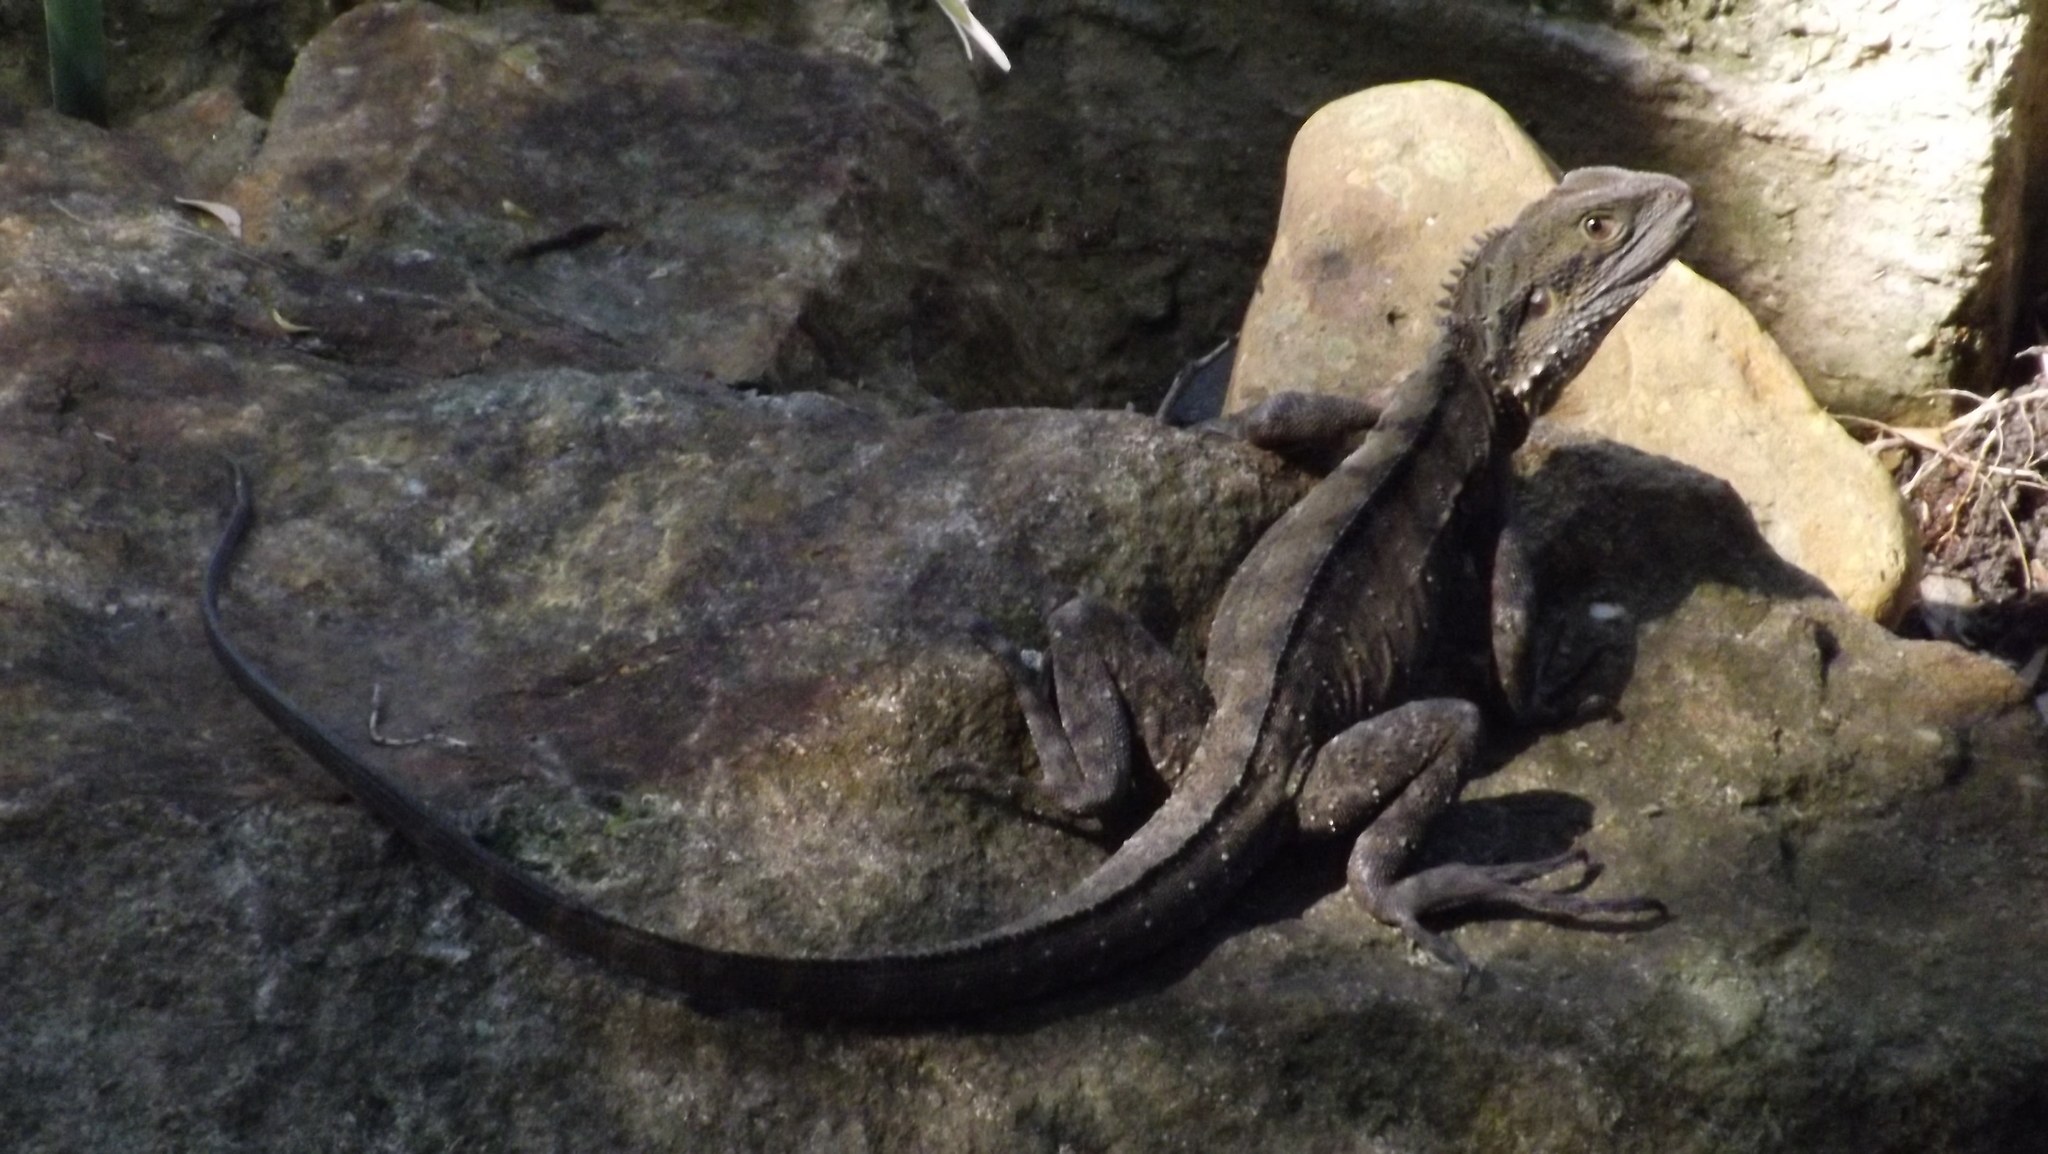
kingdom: Animalia
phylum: Chordata
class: Squamata
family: Agamidae
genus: Intellagama
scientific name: Intellagama lesueurii
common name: Eastern water dragon
